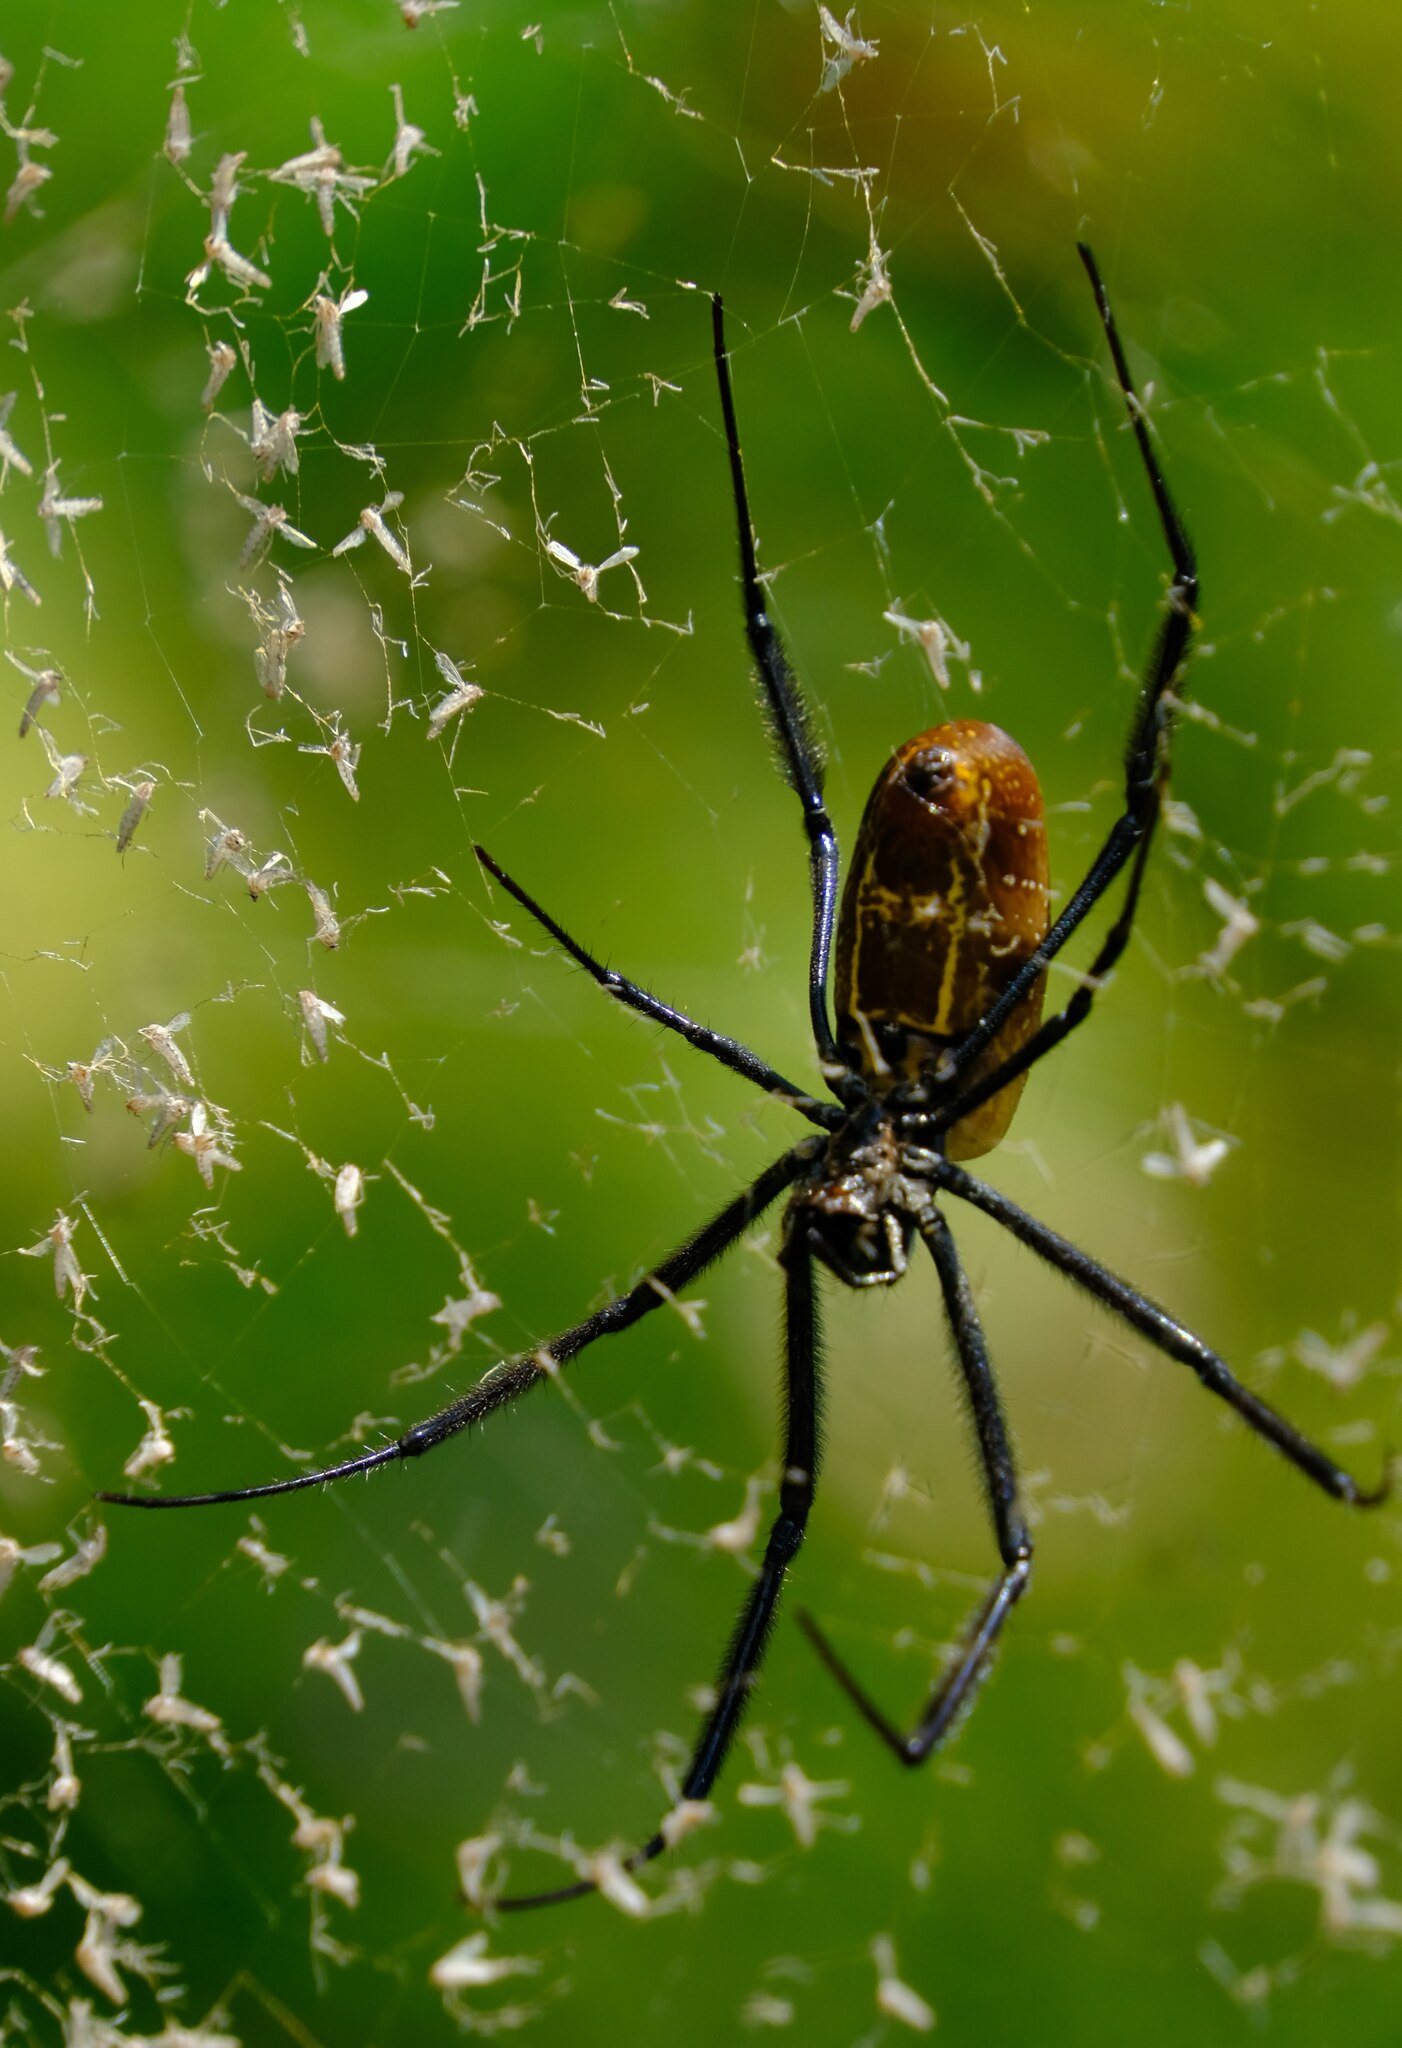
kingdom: Animalia
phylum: Arthropoda
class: Arachnida
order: Araneae
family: Araneidae
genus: Trichonephila
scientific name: Trichonephila fenestrata
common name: Hairy golden orb weaver
